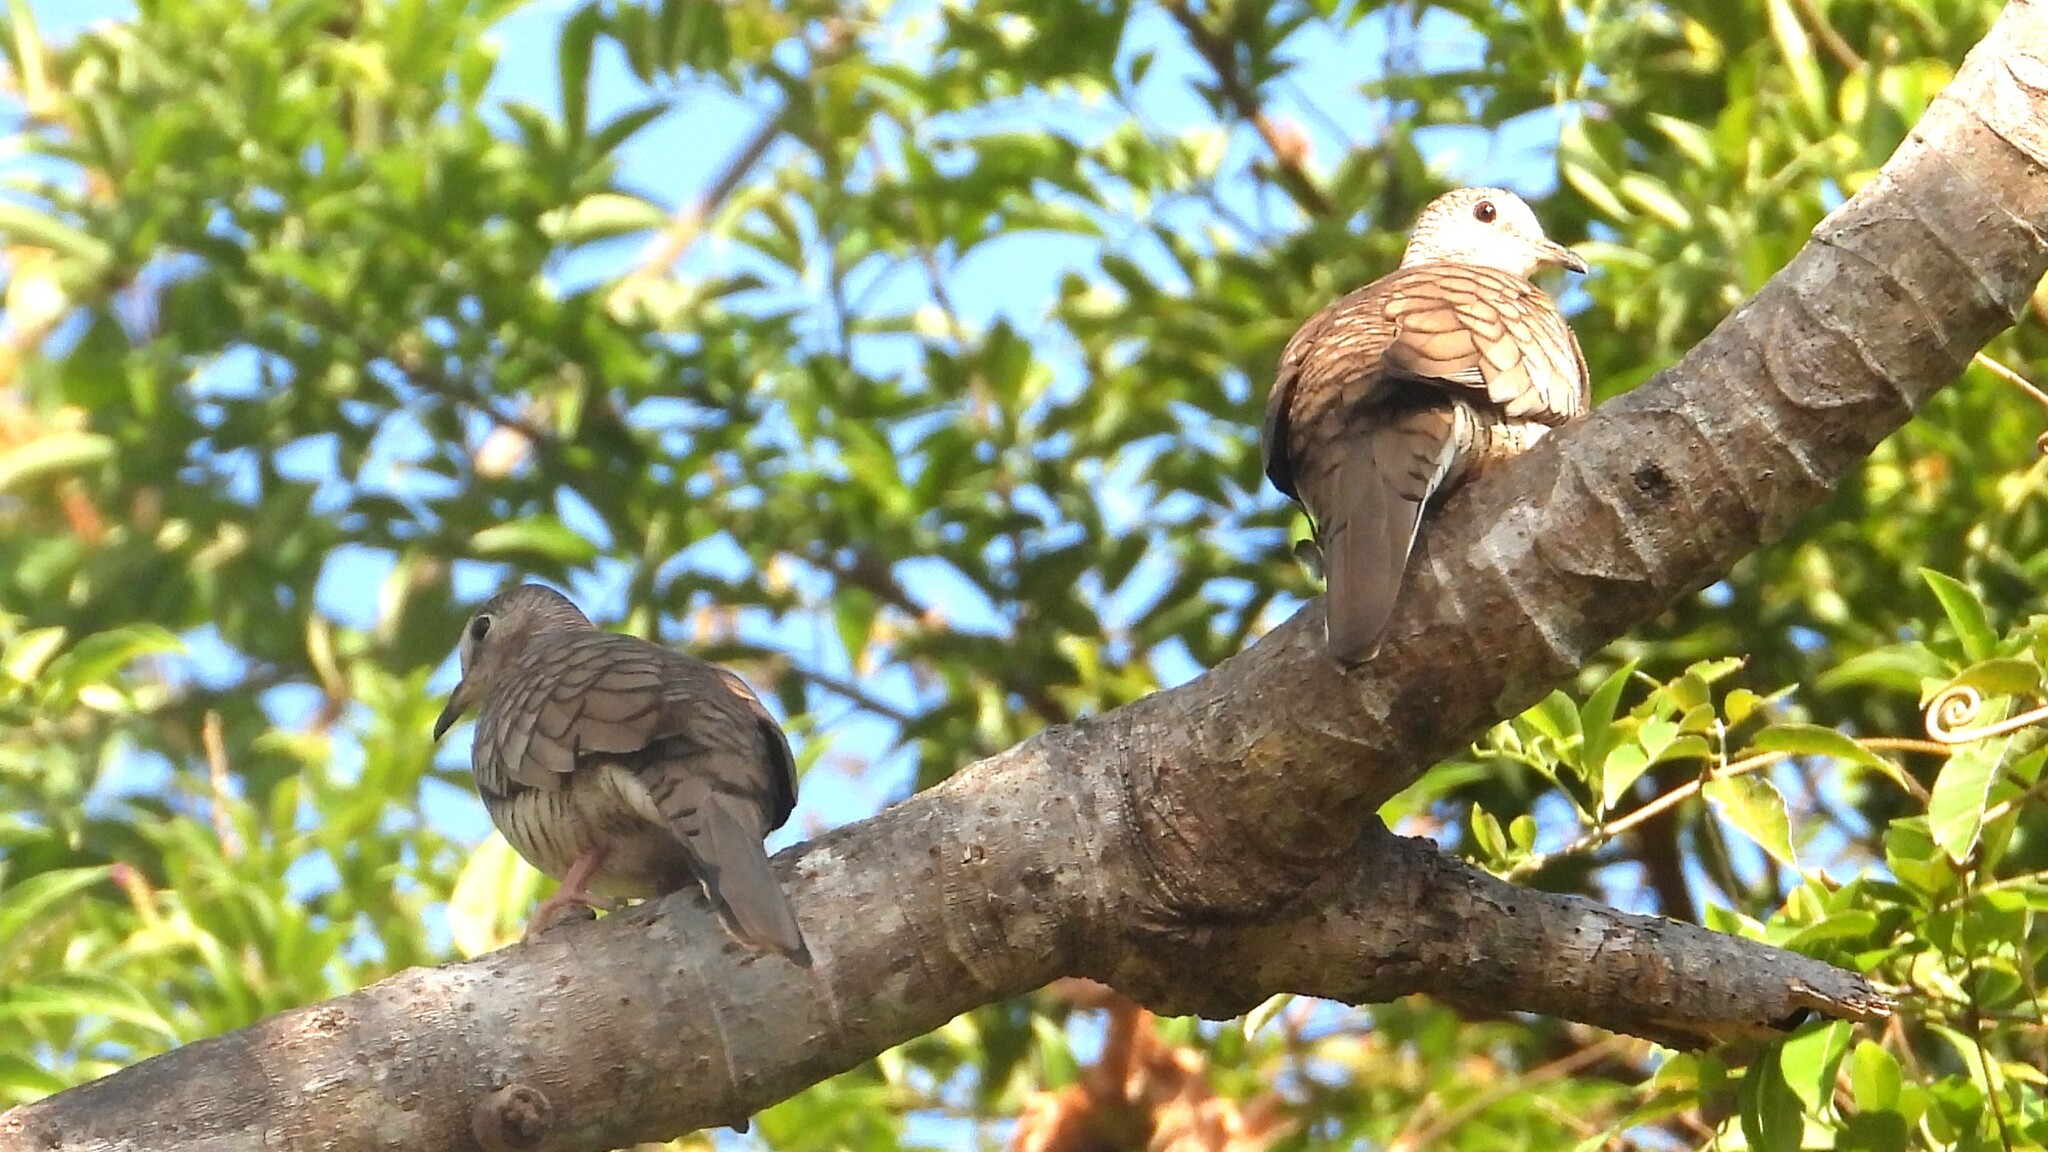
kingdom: Animalia
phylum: Chordata
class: Aves
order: Columbiformes
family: Columbidae
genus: Columbina
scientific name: Columbina inca
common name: Inca dove
